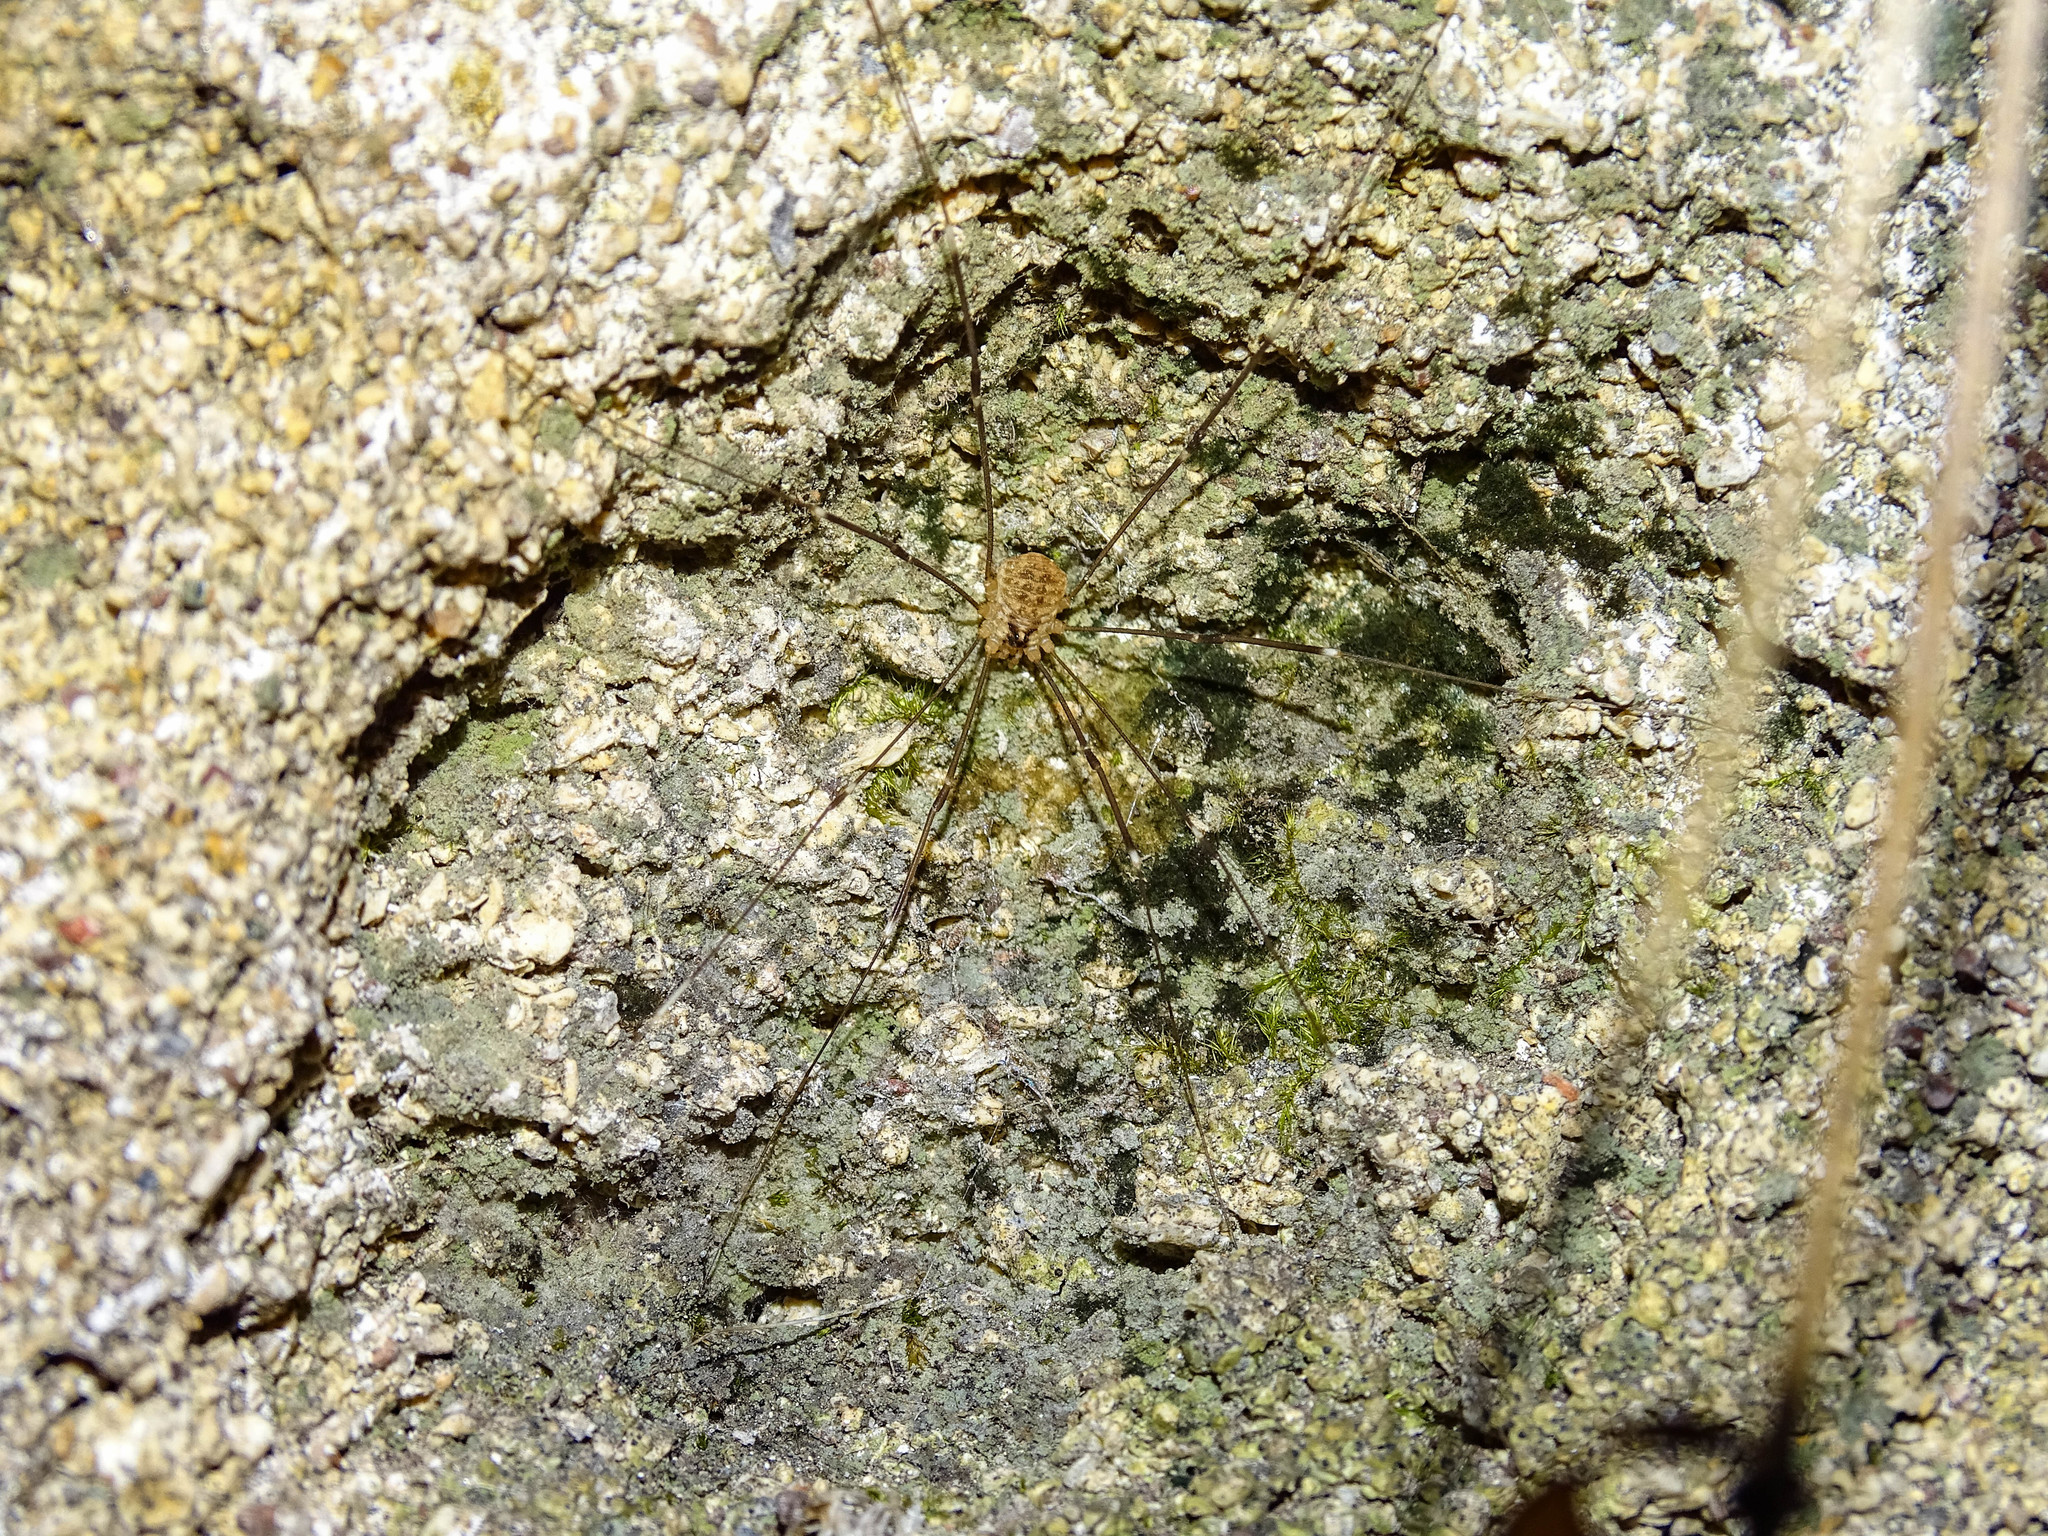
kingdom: Animalia
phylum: Arthropoda
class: Arachnida
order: Opiliones
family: Sclerosomatidae
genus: Leiobunum
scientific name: Leiobunum ghigii
